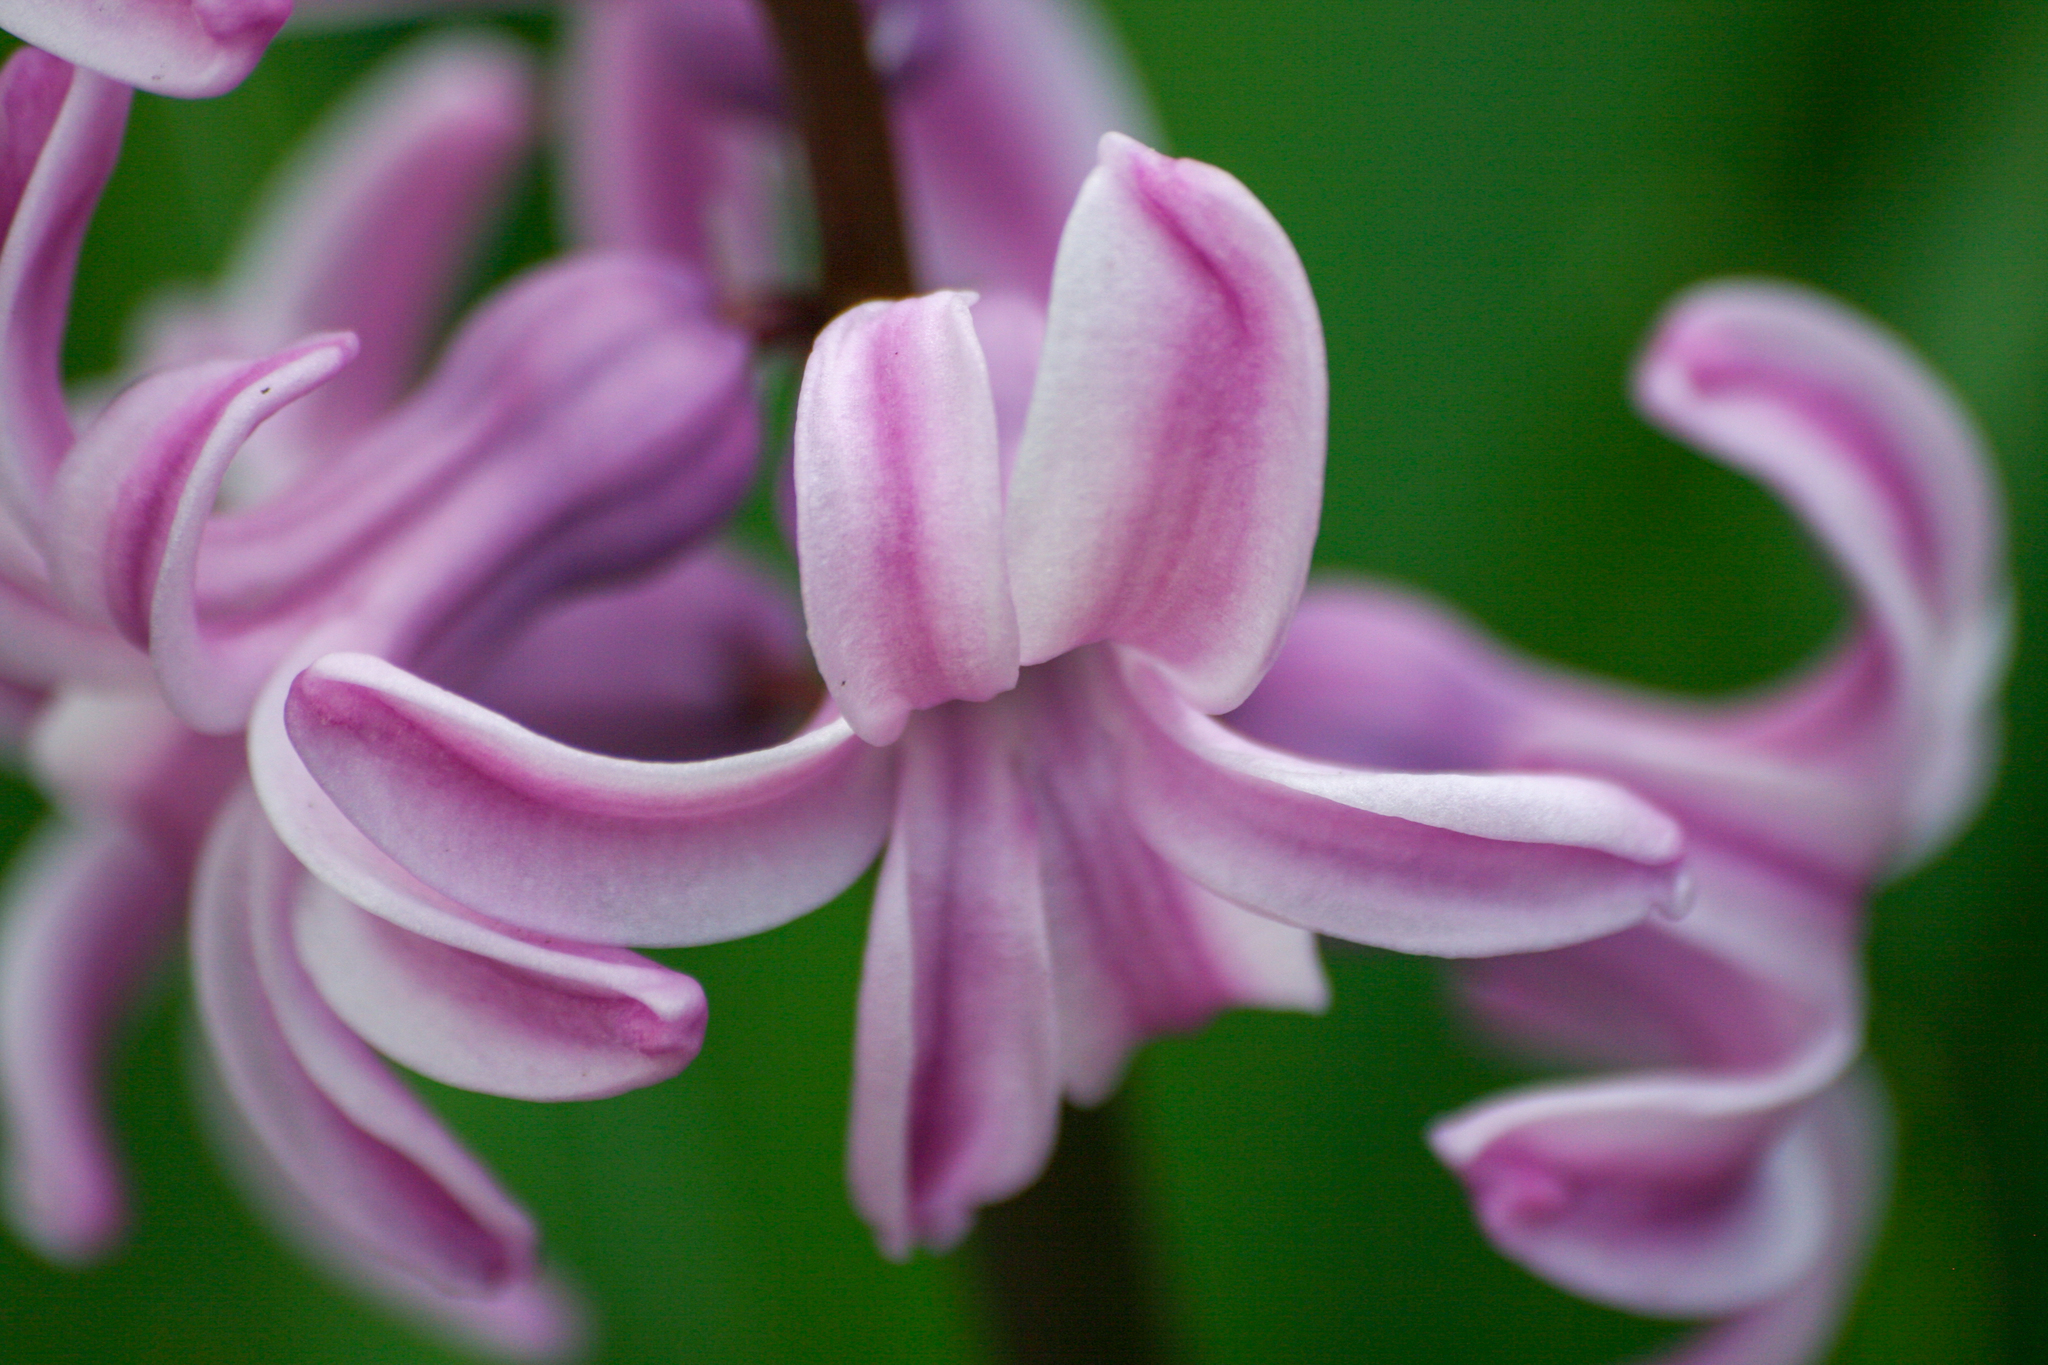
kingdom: Plantae
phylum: Tracheophyta
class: Liliopsida
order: Asparagales
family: Asparagaceae
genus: Hyacinthus
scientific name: Hyacinthus orientalis
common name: Hyacinth
